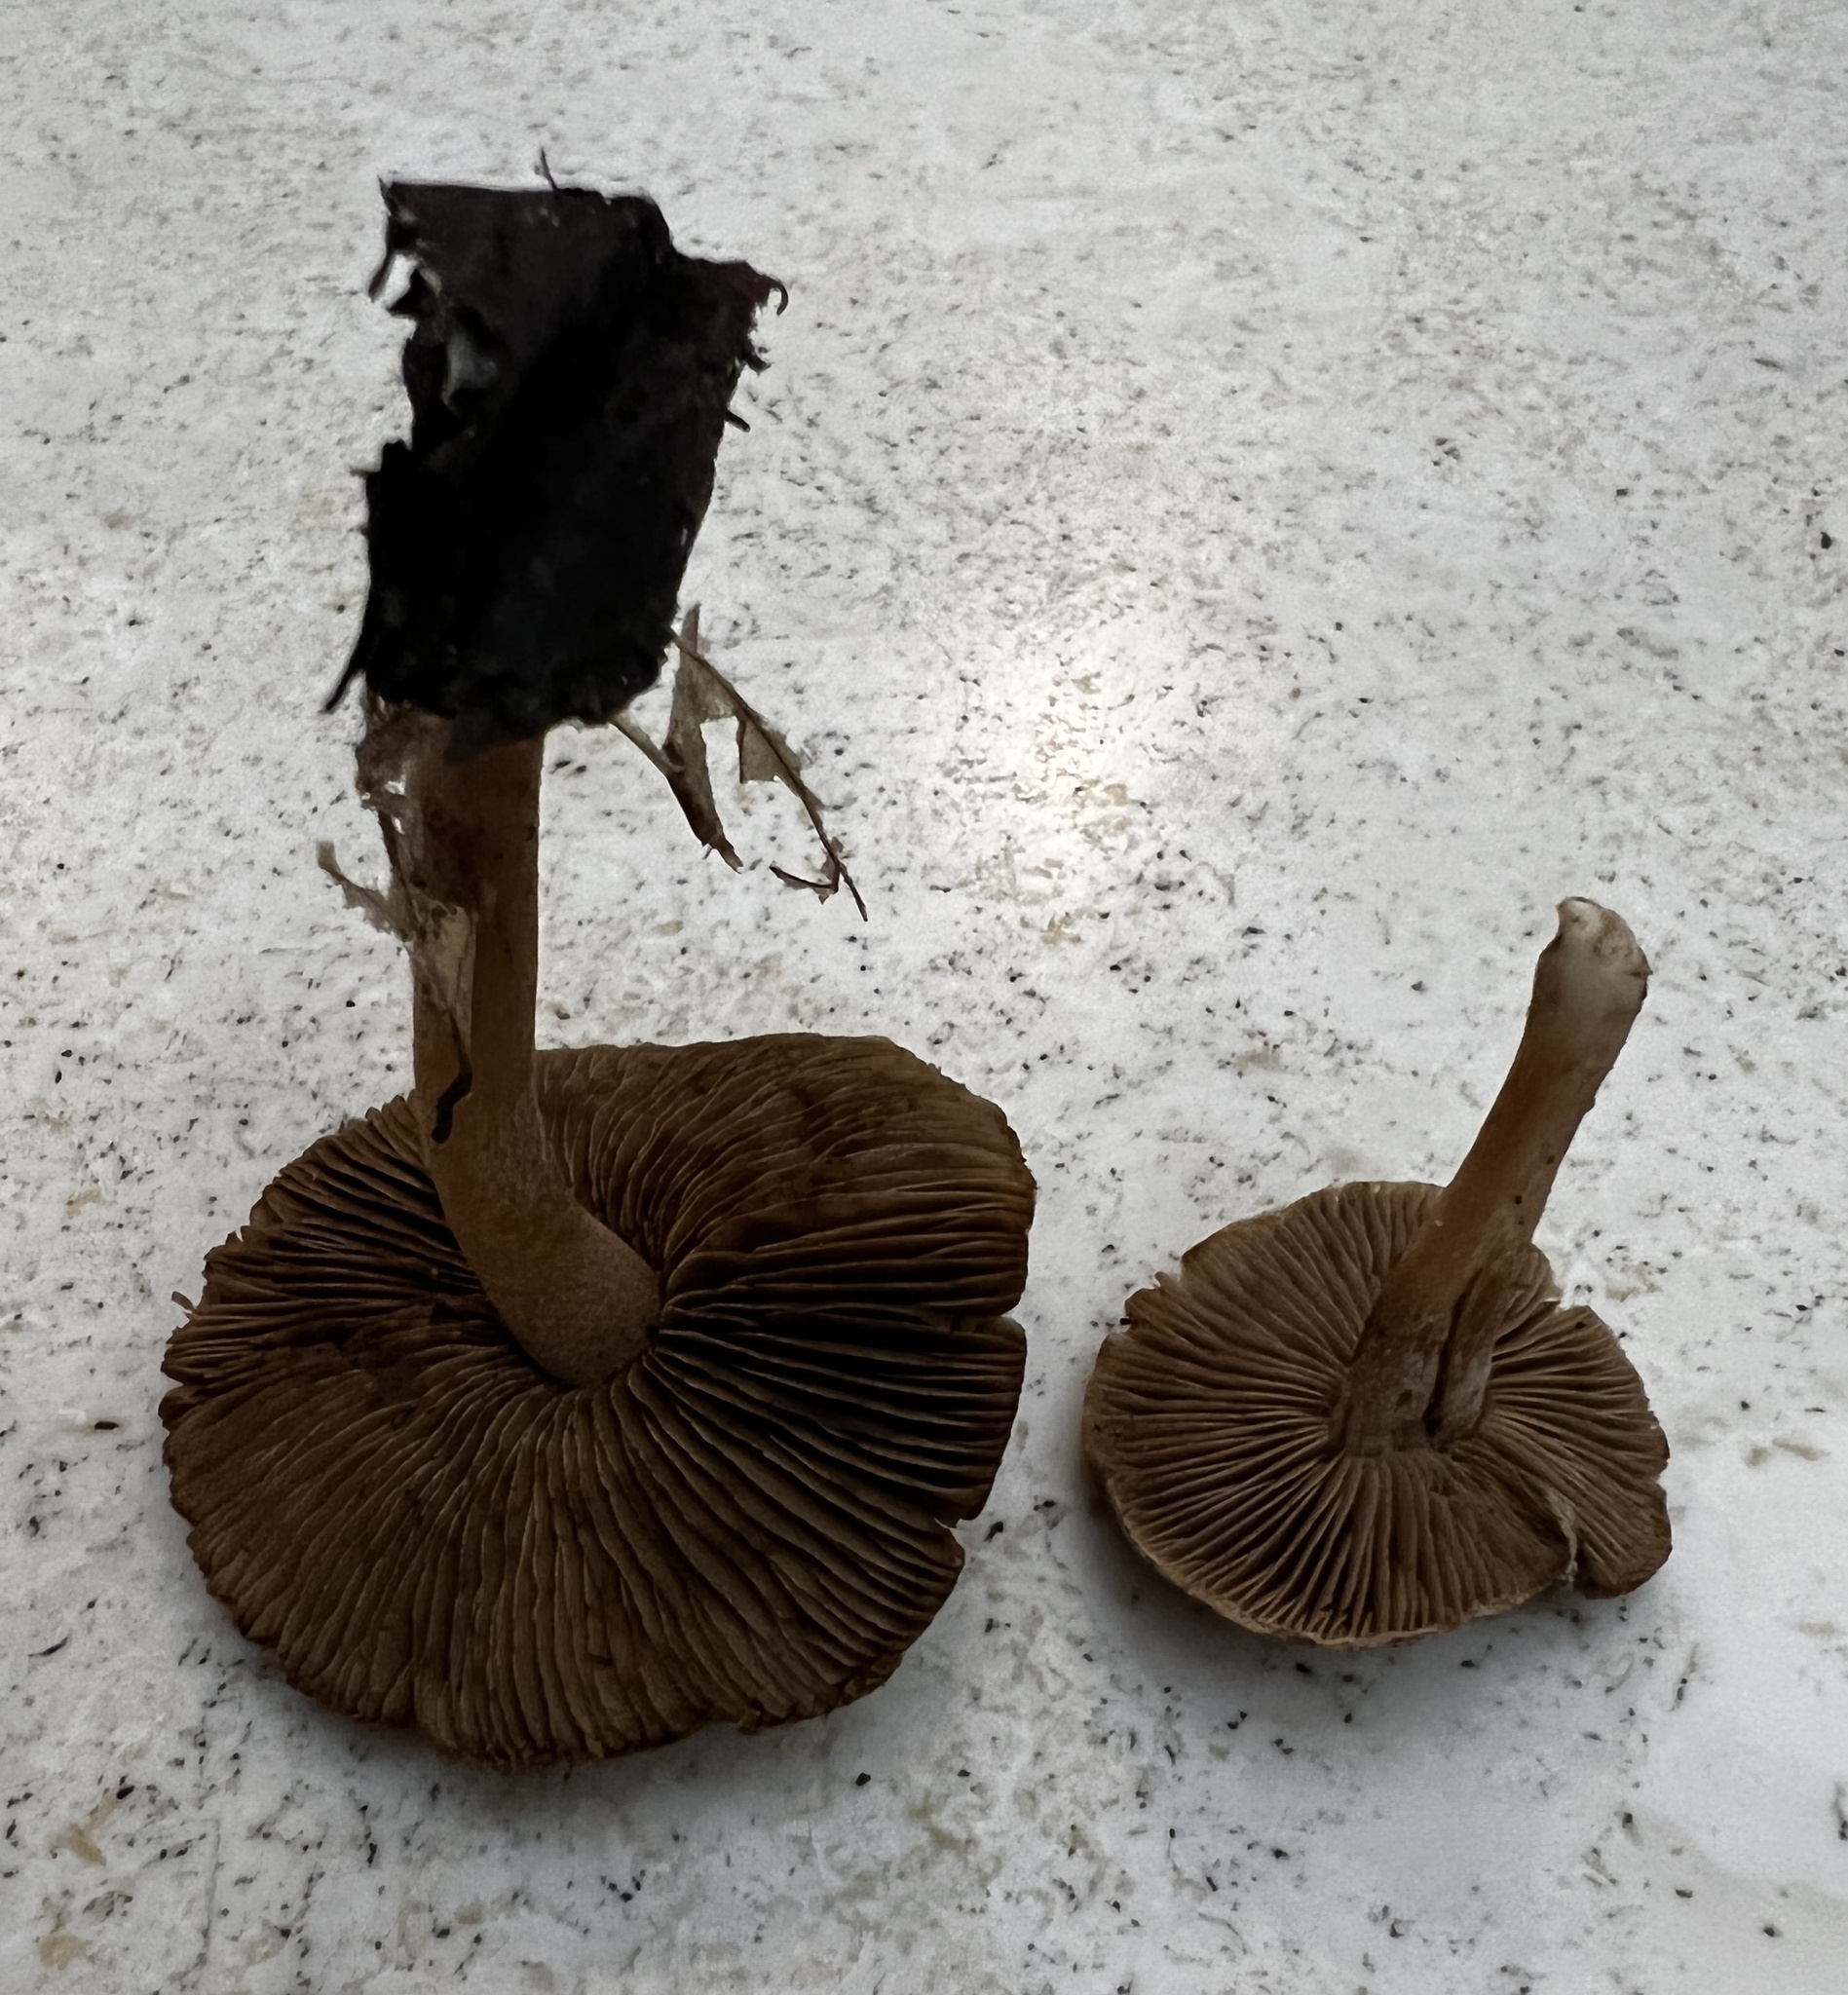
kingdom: Fungi
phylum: Basidiomycota
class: Agaricomycetes
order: Agaricales
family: Inocybaceae
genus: Inocybe
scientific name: Inocybe flocculosa
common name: Fleecy fibrecap
